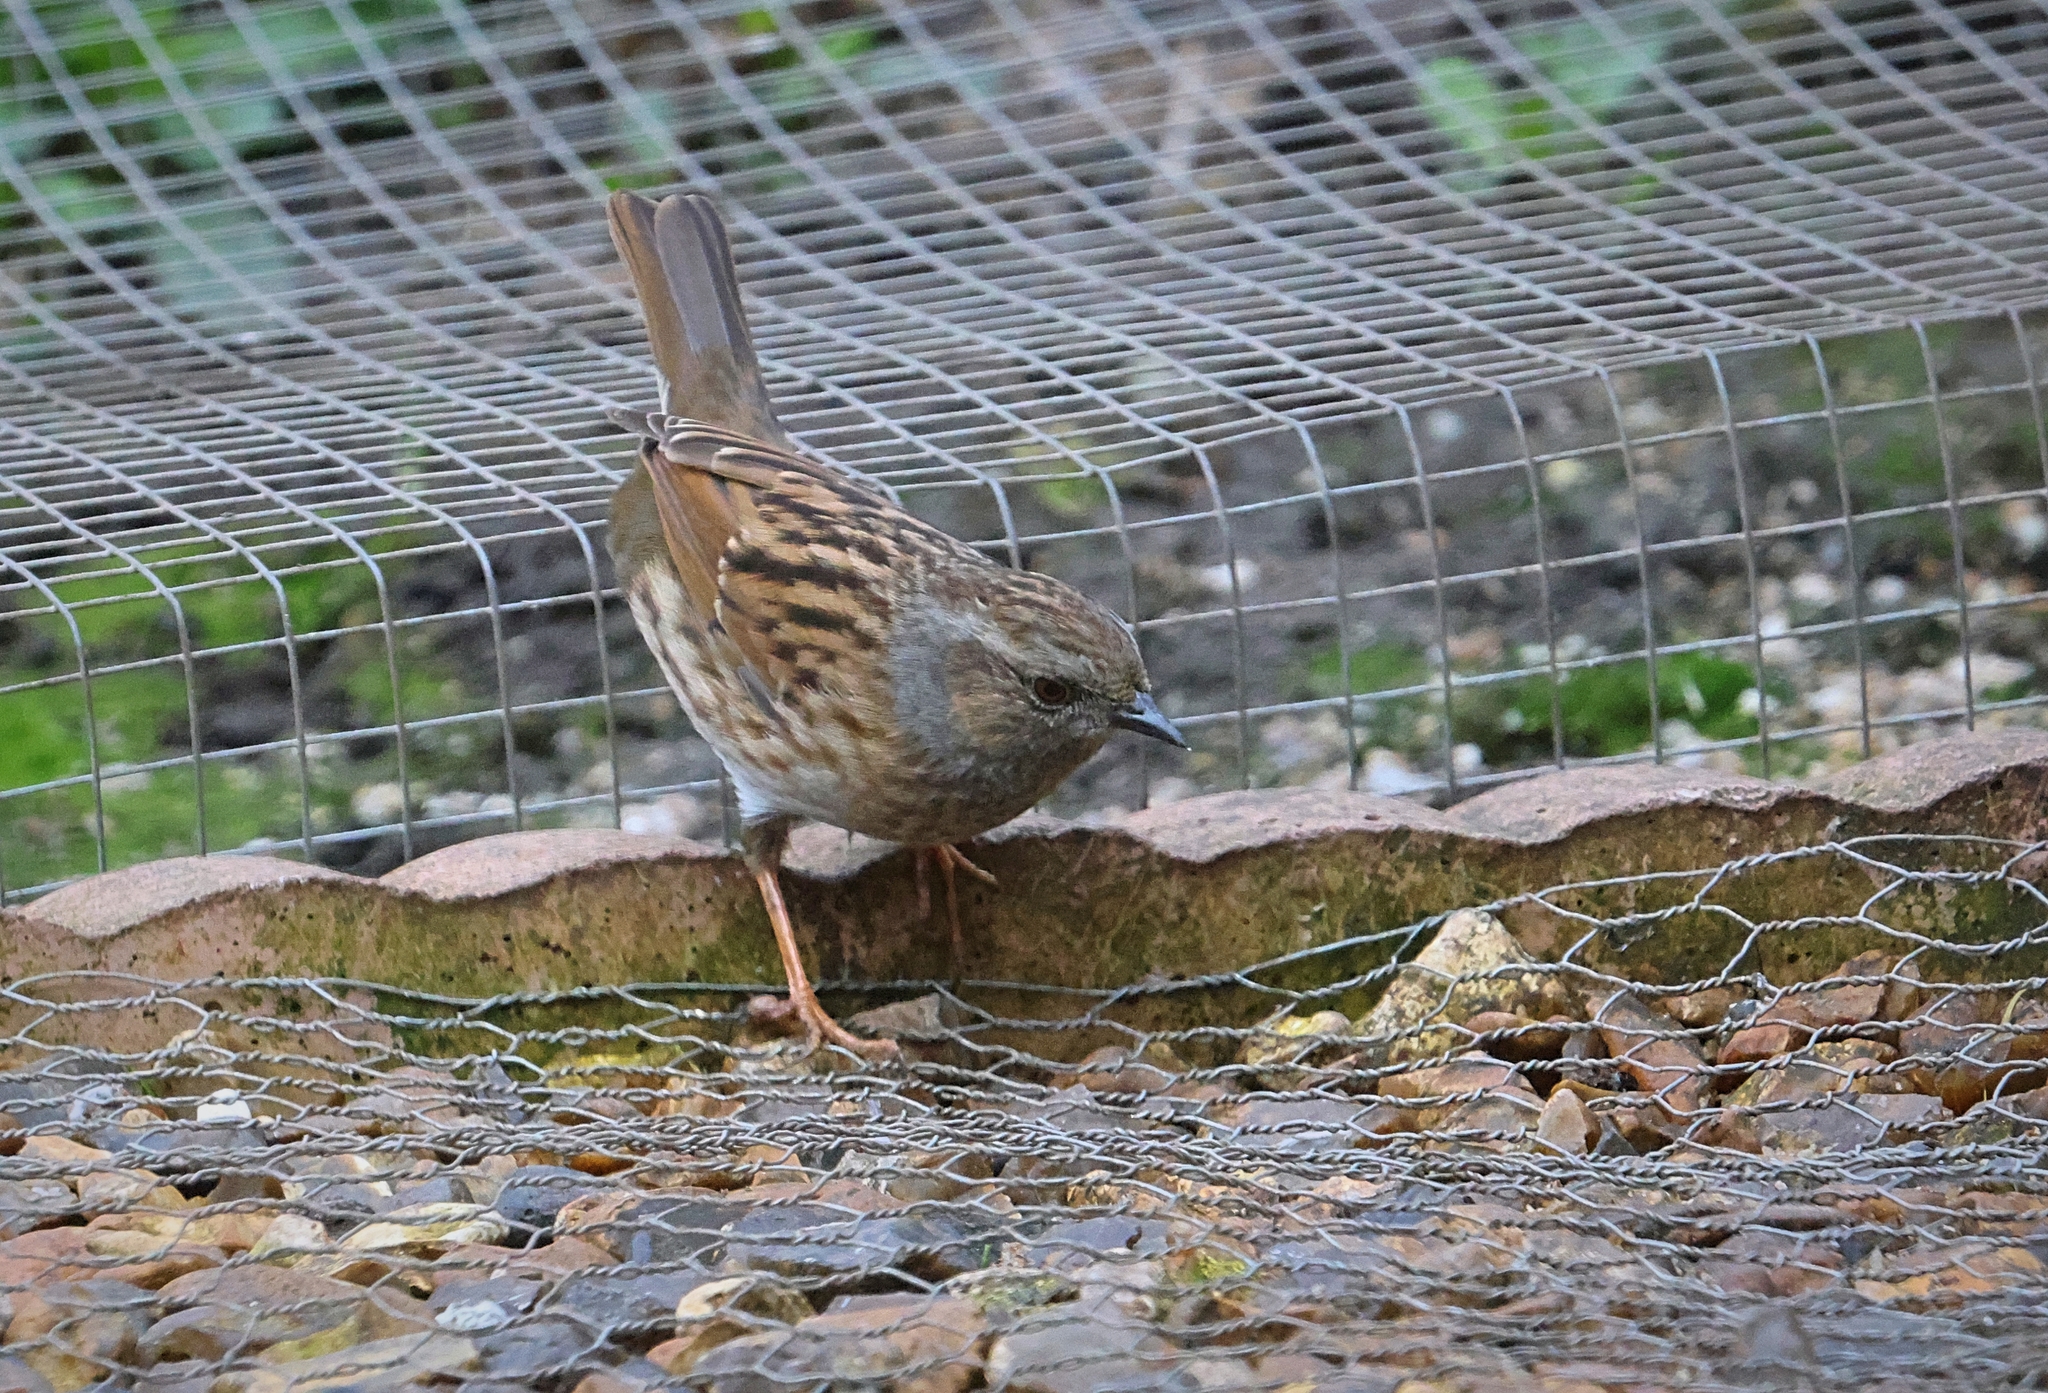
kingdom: Animalia
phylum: Chordata
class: Aves
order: Passeriformes
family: Prunellidae
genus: Prunella
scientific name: Prunella modularis
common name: Dunnock
